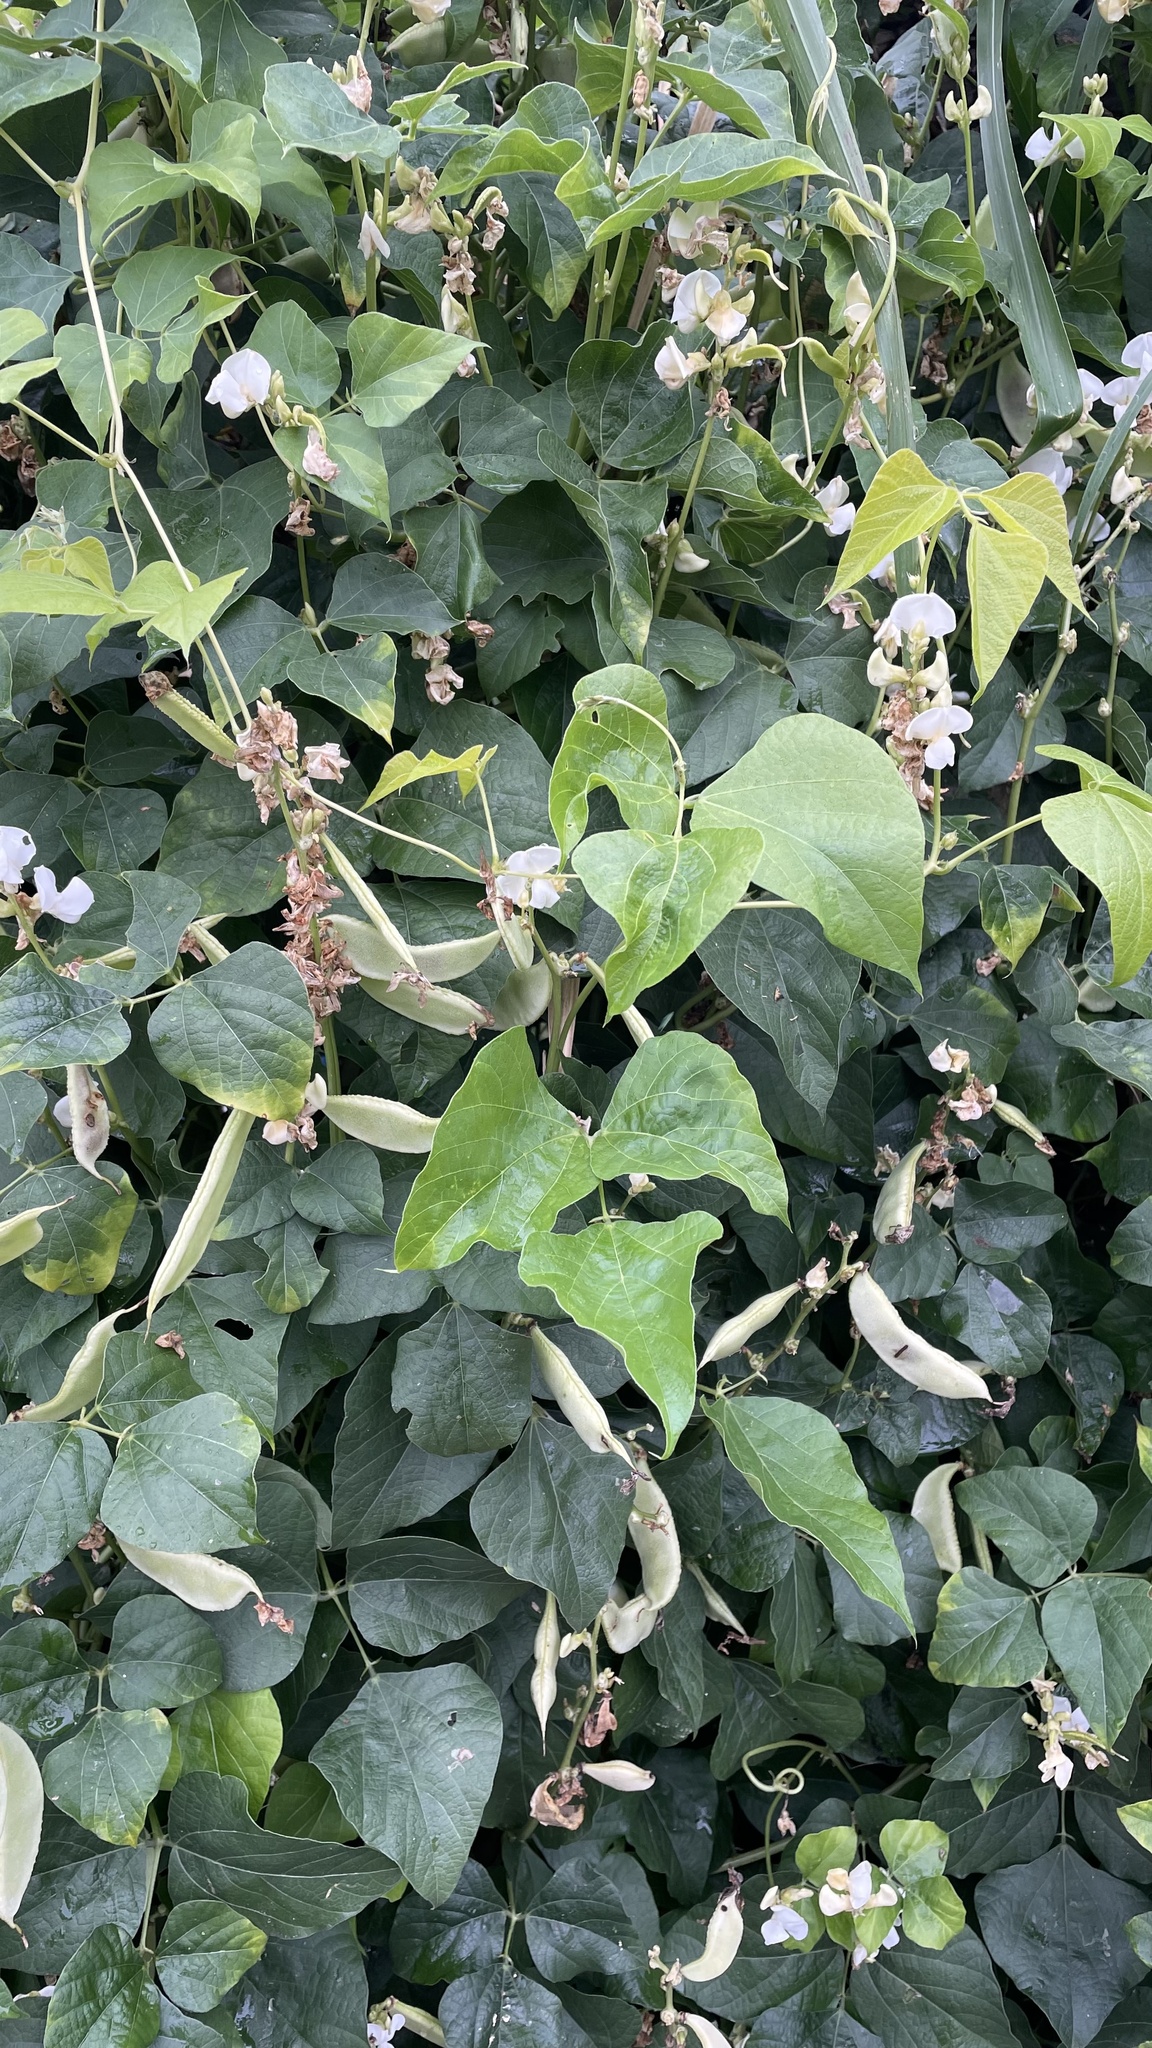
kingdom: Plantae
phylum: Tracheophyta
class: Magnoliopsida
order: Fabales
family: Fabaceae
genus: Lablab
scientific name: Lablab purpureus
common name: Lablab-bean
